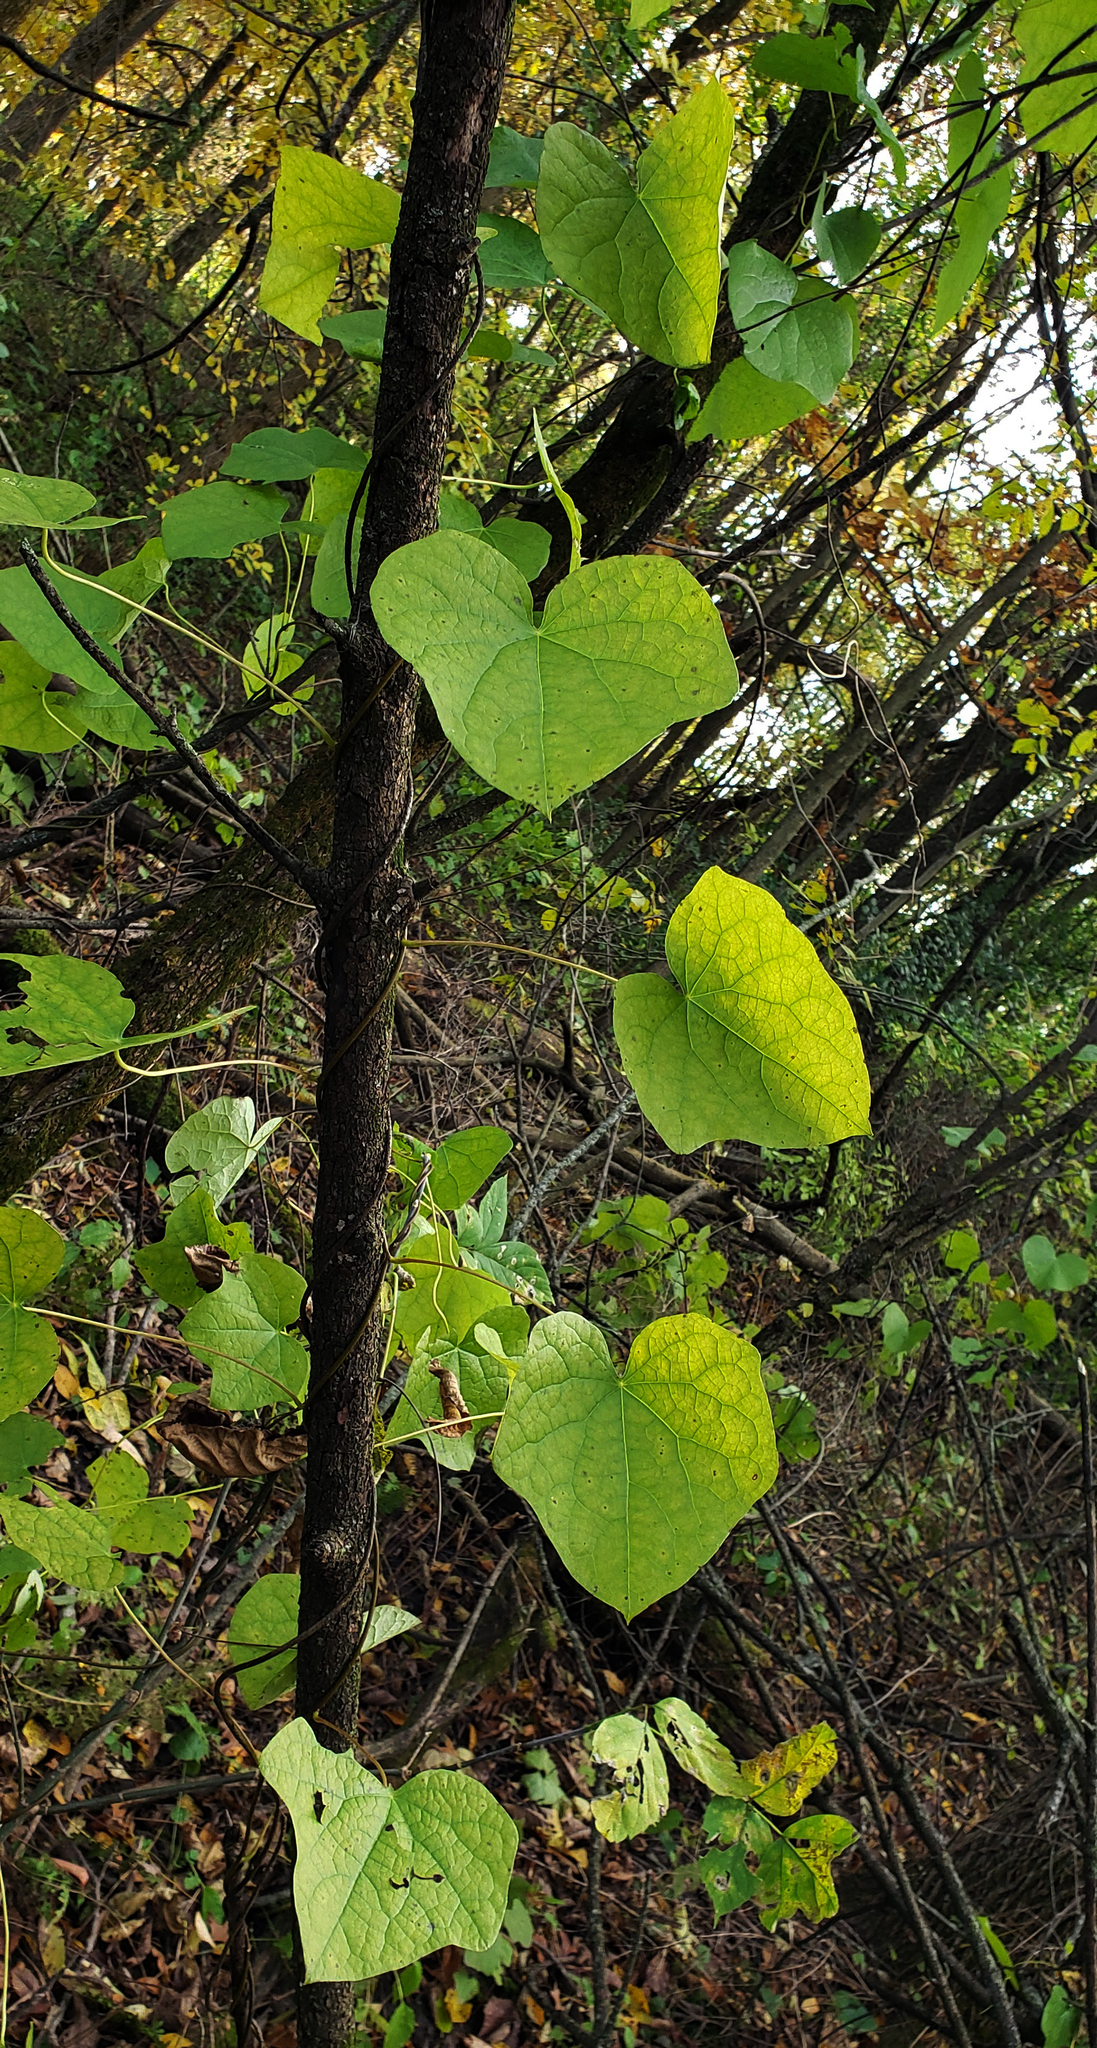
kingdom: Plantae
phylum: Tracheophyta
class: Magnoliopsida
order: Ranunculales
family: Menispermaceae
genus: Menispermum
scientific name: Menispermum canadense
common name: Moonseed
